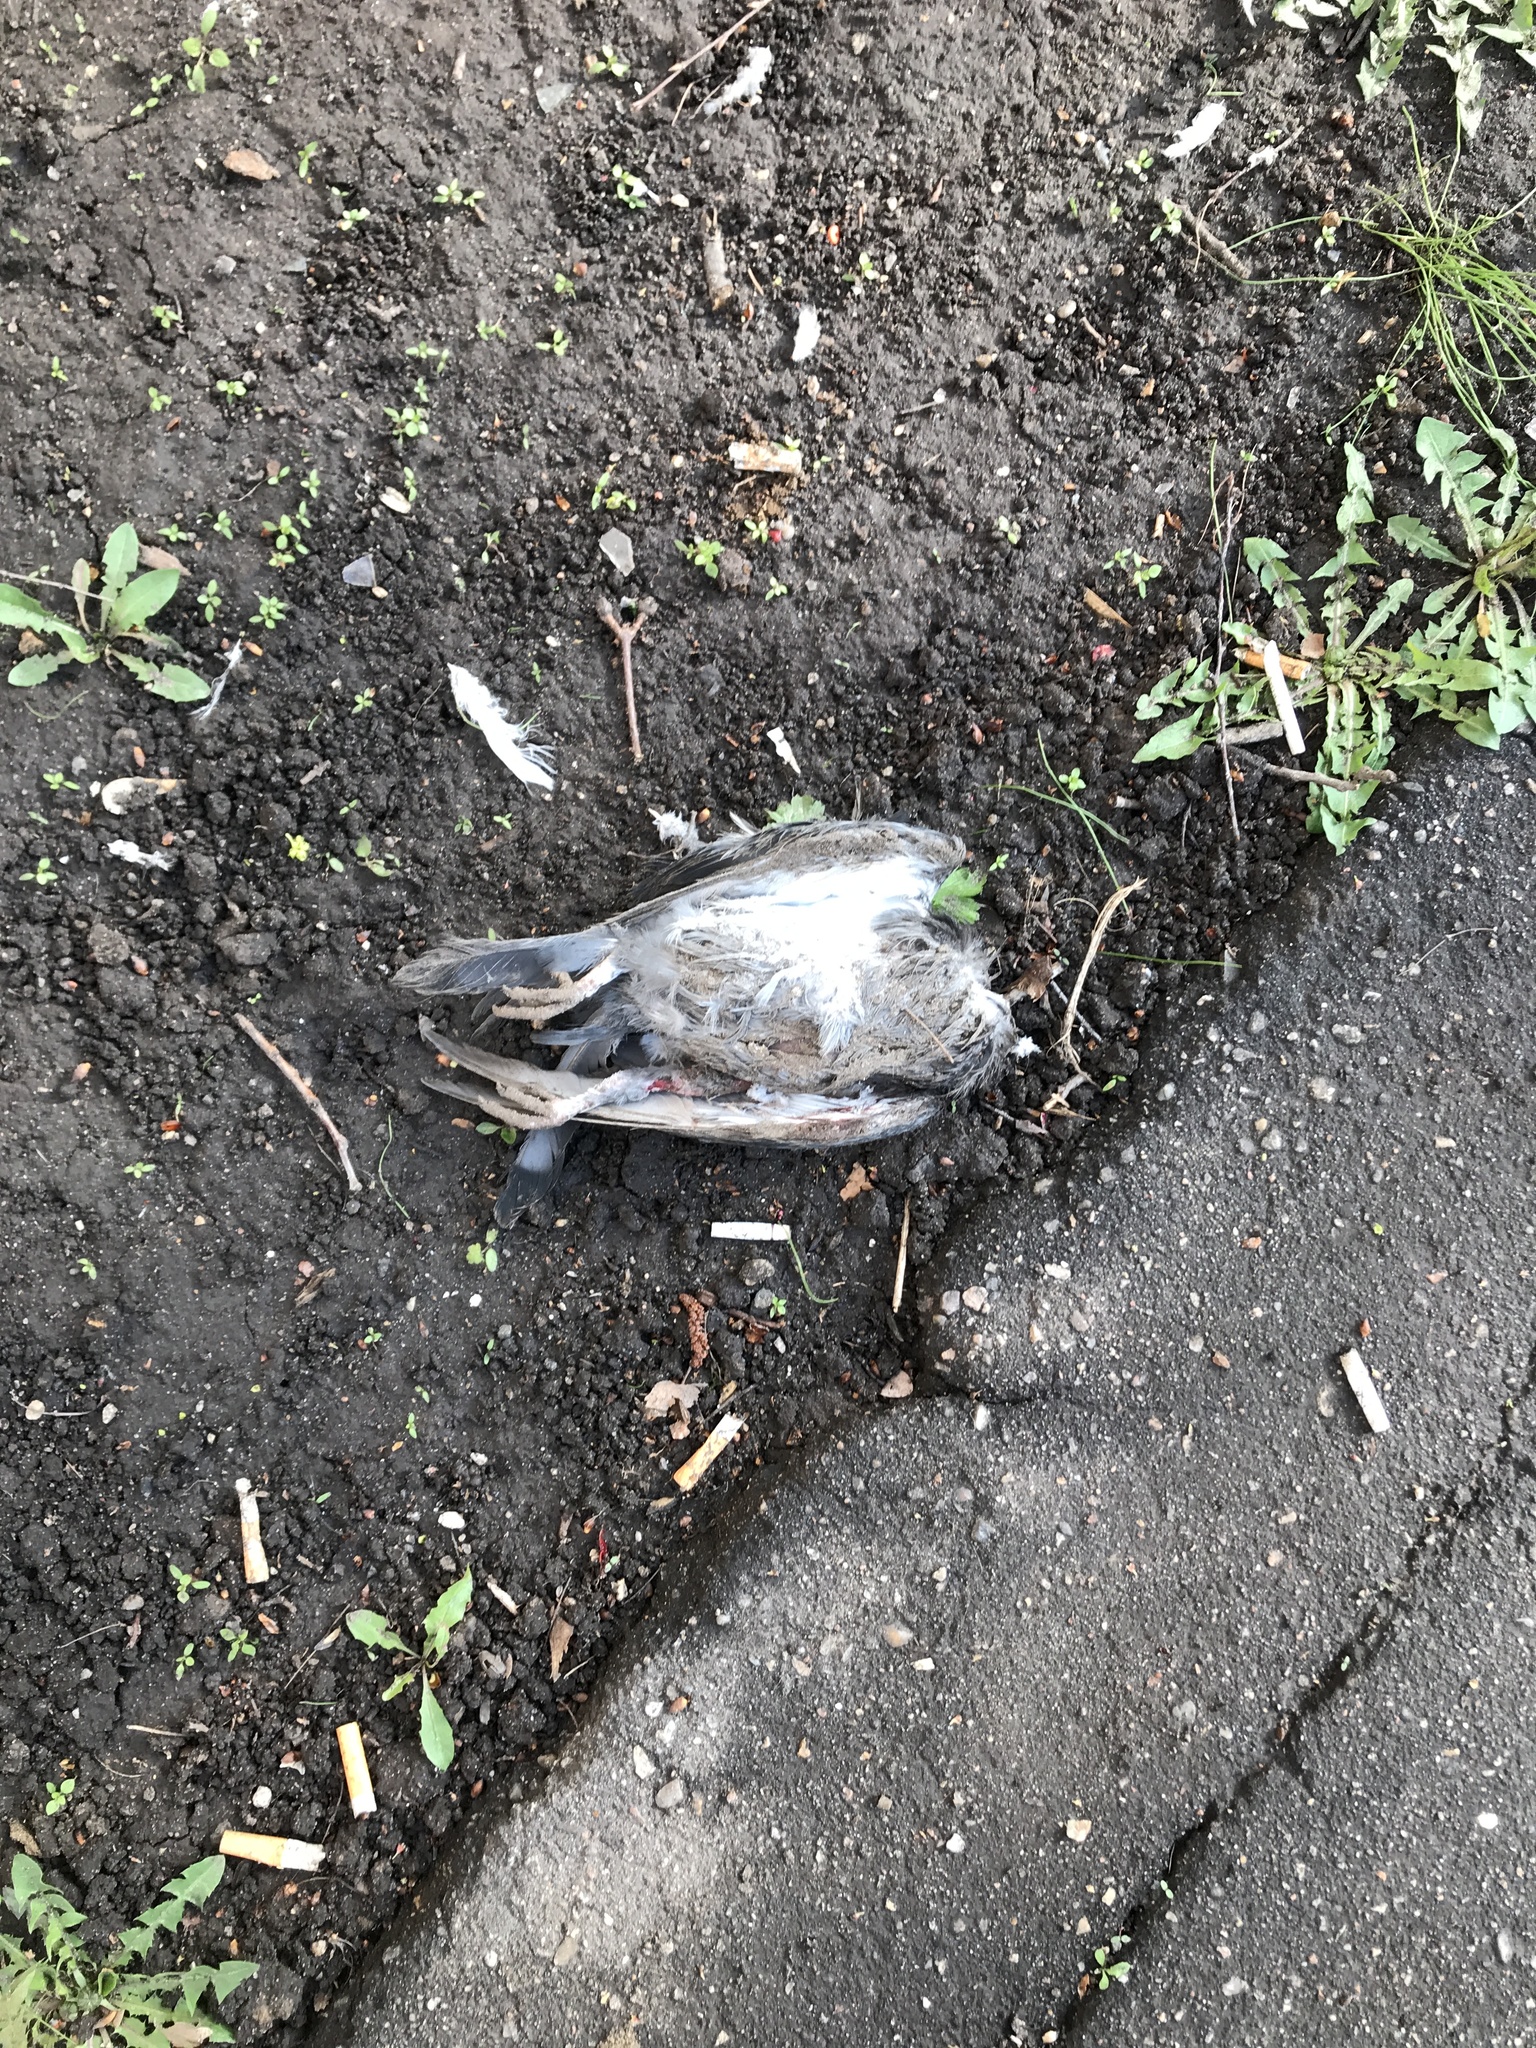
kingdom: Animalia
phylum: Chordata
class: Aves
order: Columbiformes
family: Columbidae
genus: Columba
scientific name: Columba livia
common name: Rock pigeon
